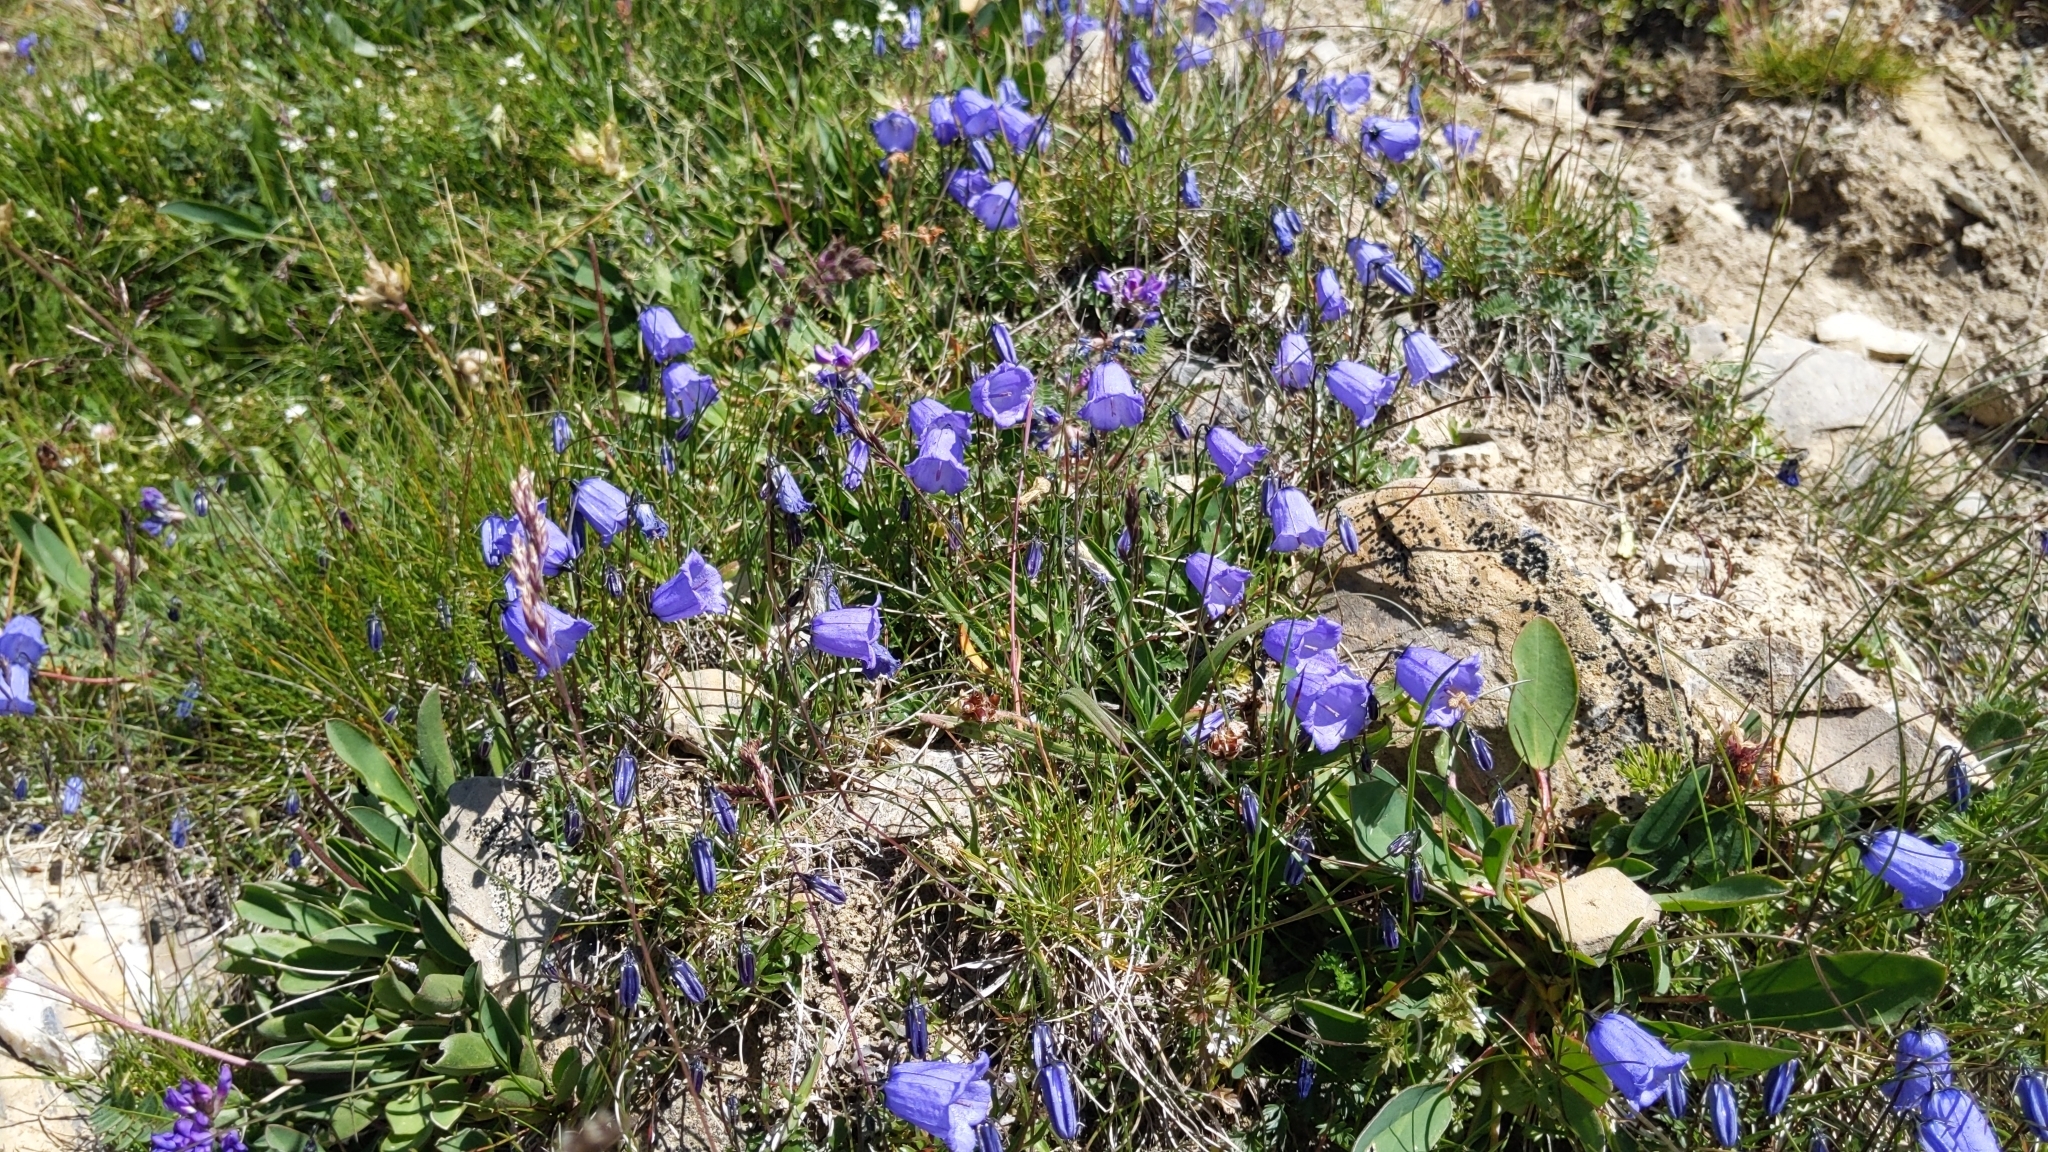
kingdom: Plantae
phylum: Tracheophyta
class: Magnoliopsida
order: Asterales
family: Campanulaceae
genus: Campanula
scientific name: Campanula cochleariifolia
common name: Fairies'-thimbles
